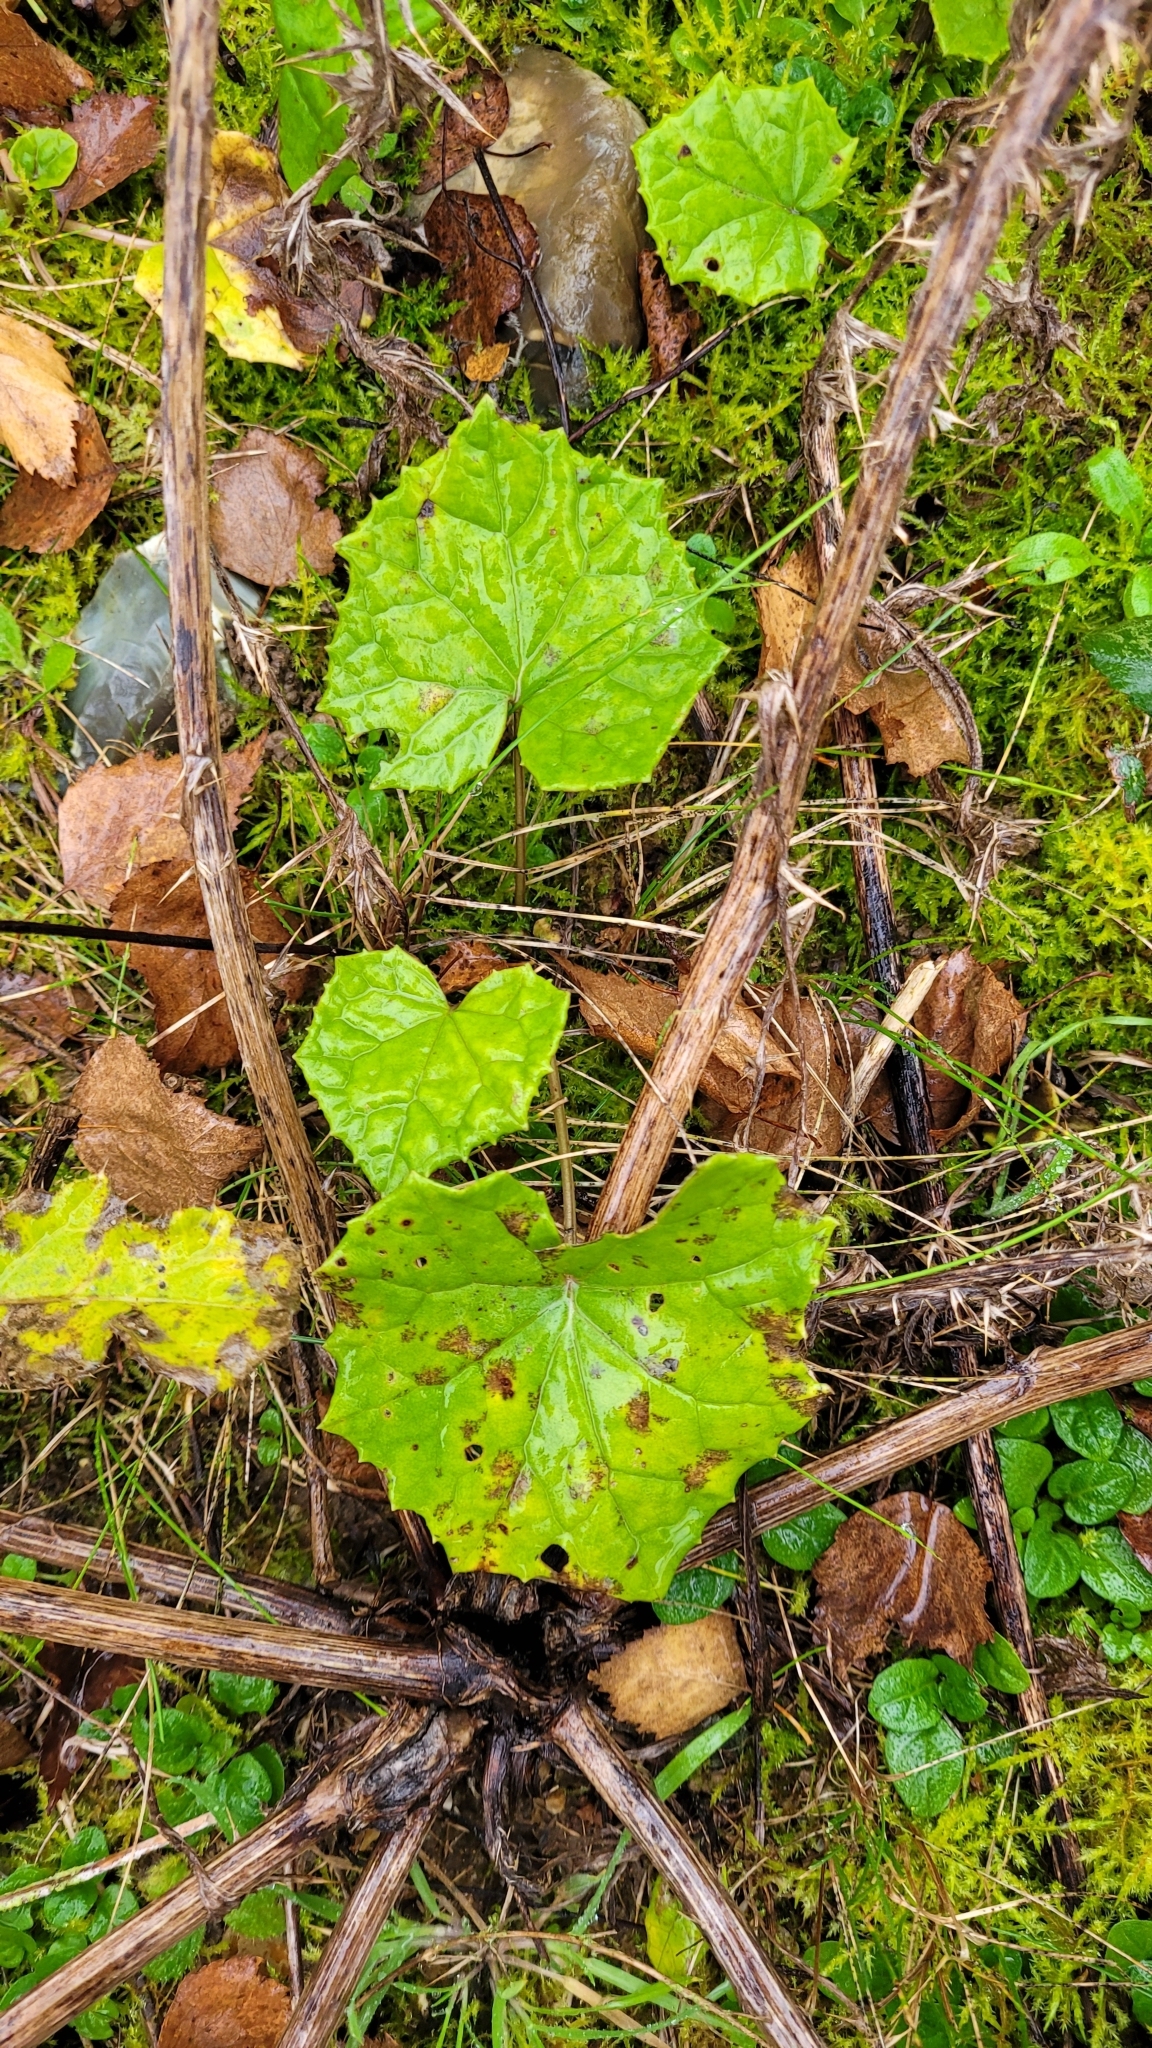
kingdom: Plantae
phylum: Tracheophyta
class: Magnoliopsida
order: Asterales
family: Asteraceae
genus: Tussilago
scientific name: Tussilago farfara
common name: Coltsfoot
